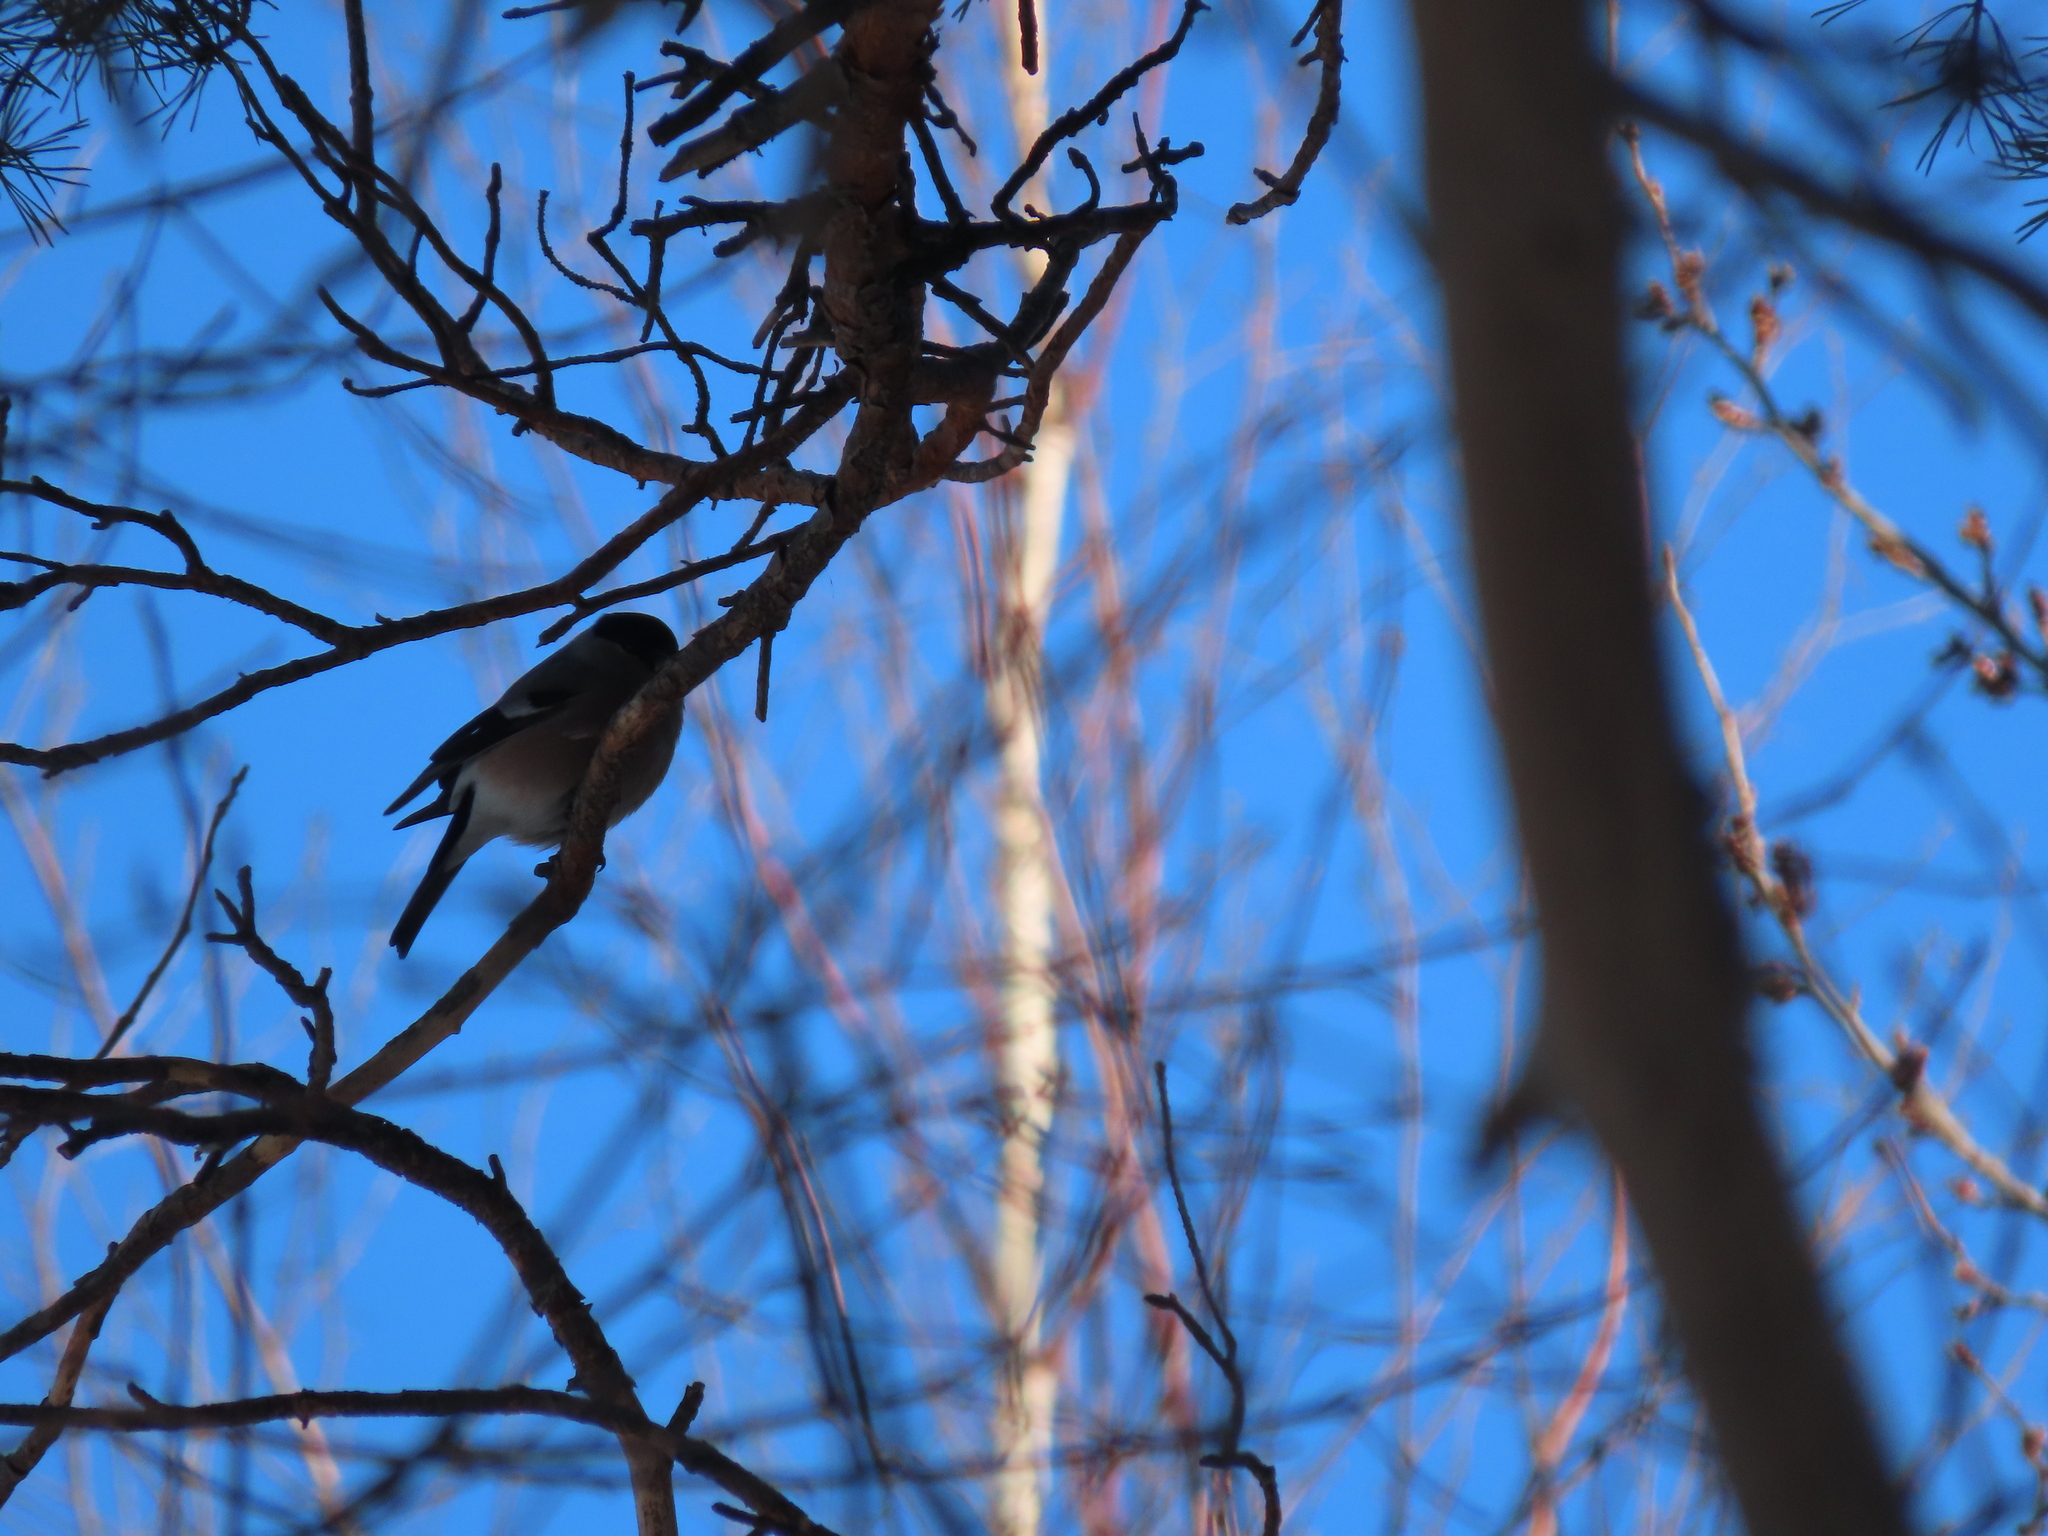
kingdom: Animalia
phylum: Chordata
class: Aves
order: Passeriformes
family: Fringillidae
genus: Pyrrhula
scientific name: Pyrrhula pyrrhula
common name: Eurasian bullfinch
